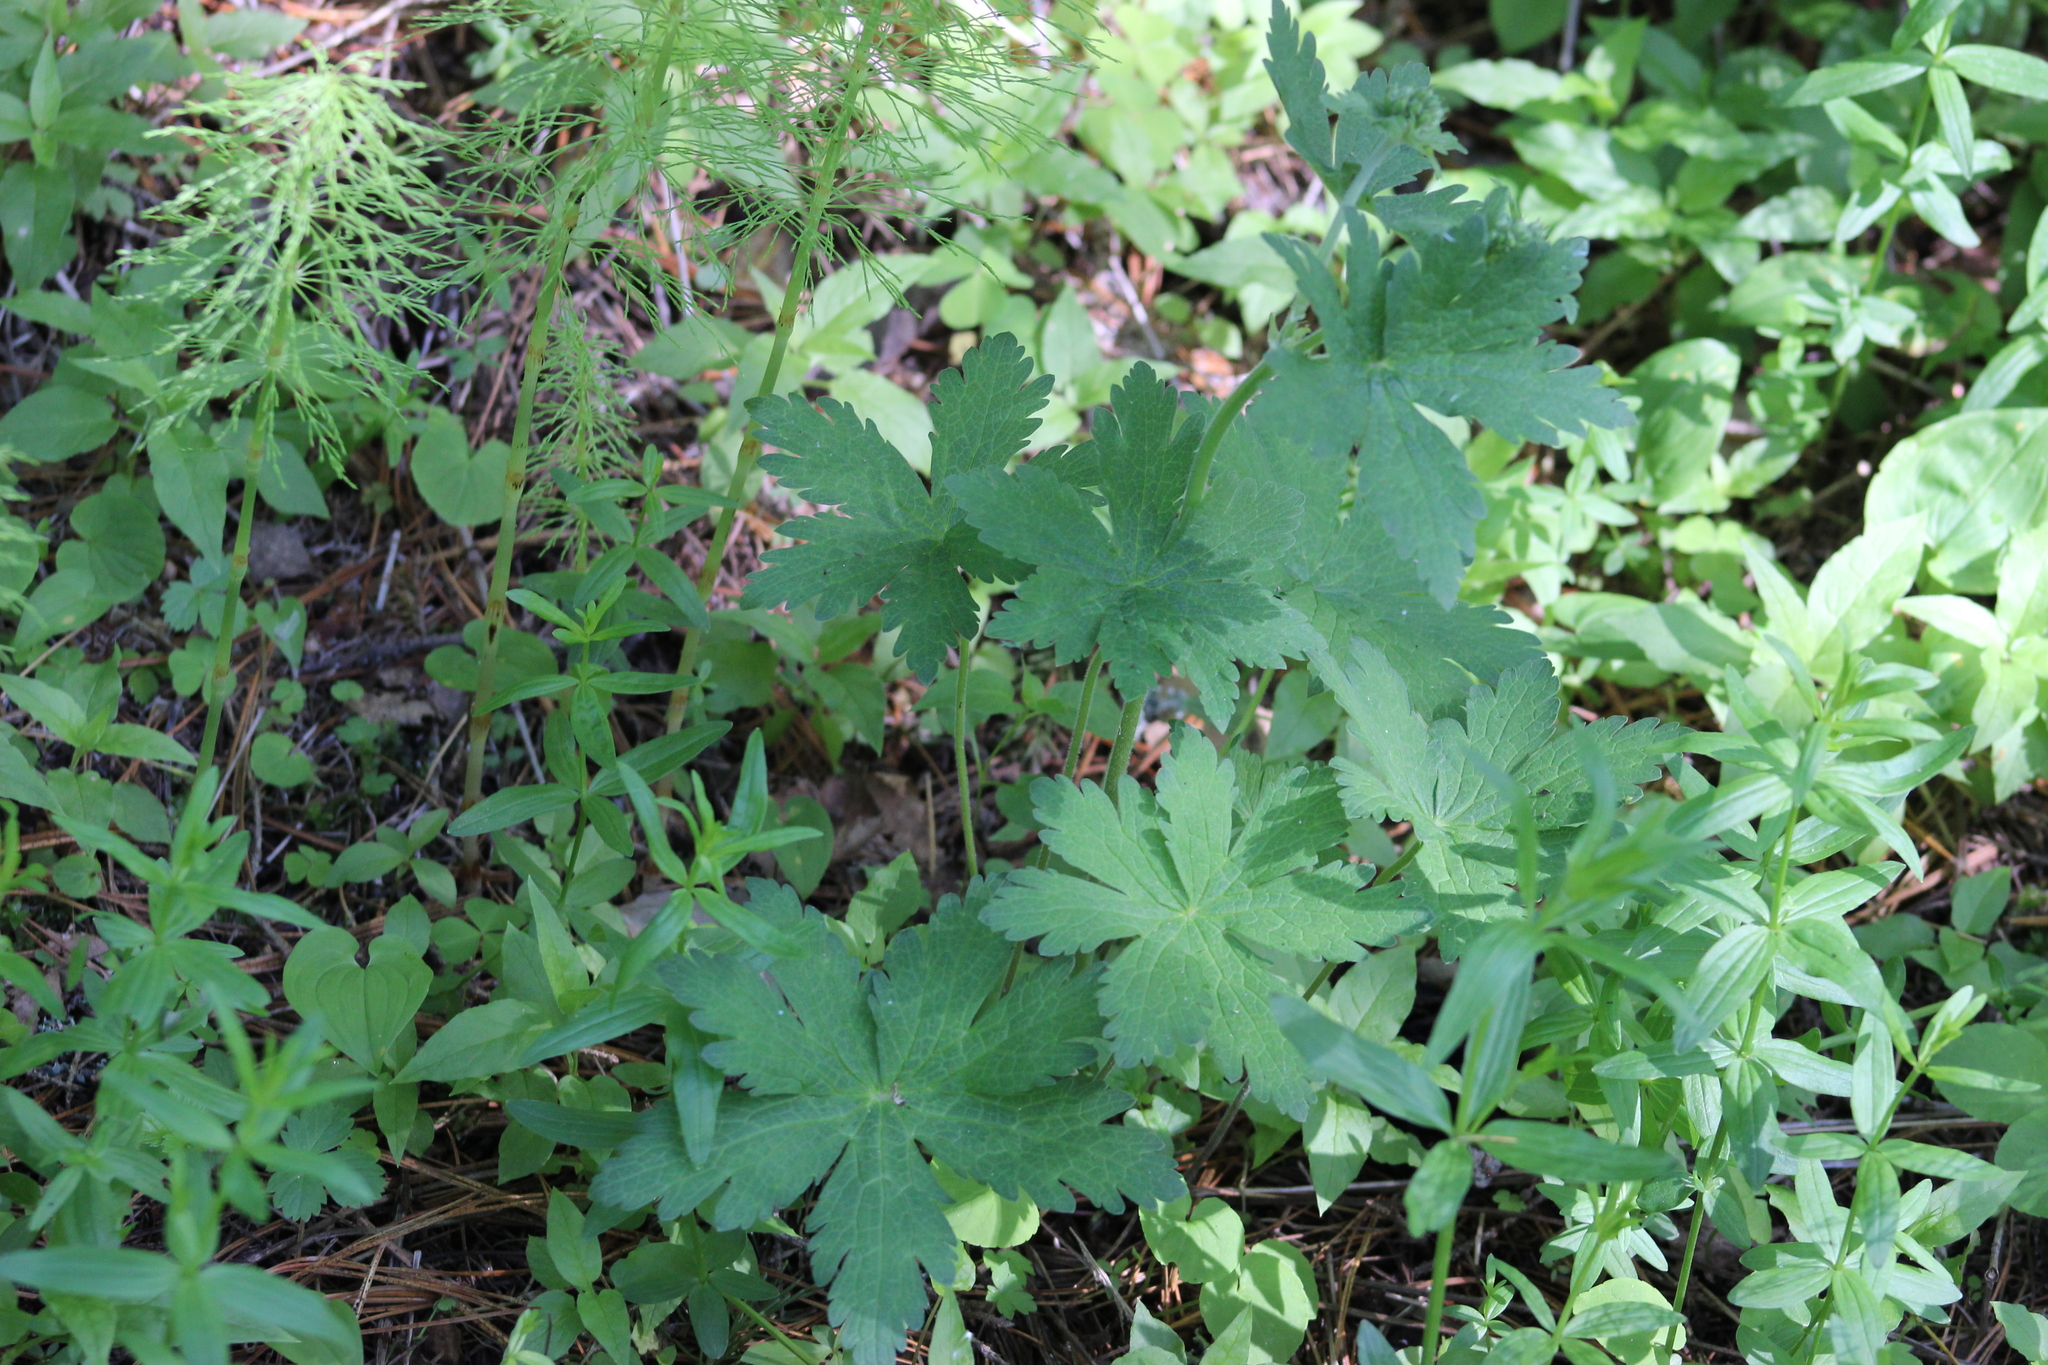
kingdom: Plantae
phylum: Tracheophyta
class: Magnoliopsida
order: Geraniales
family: Geraniaceae
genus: Geranium
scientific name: Geranium sylvaticum
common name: Wood crane's-bill
